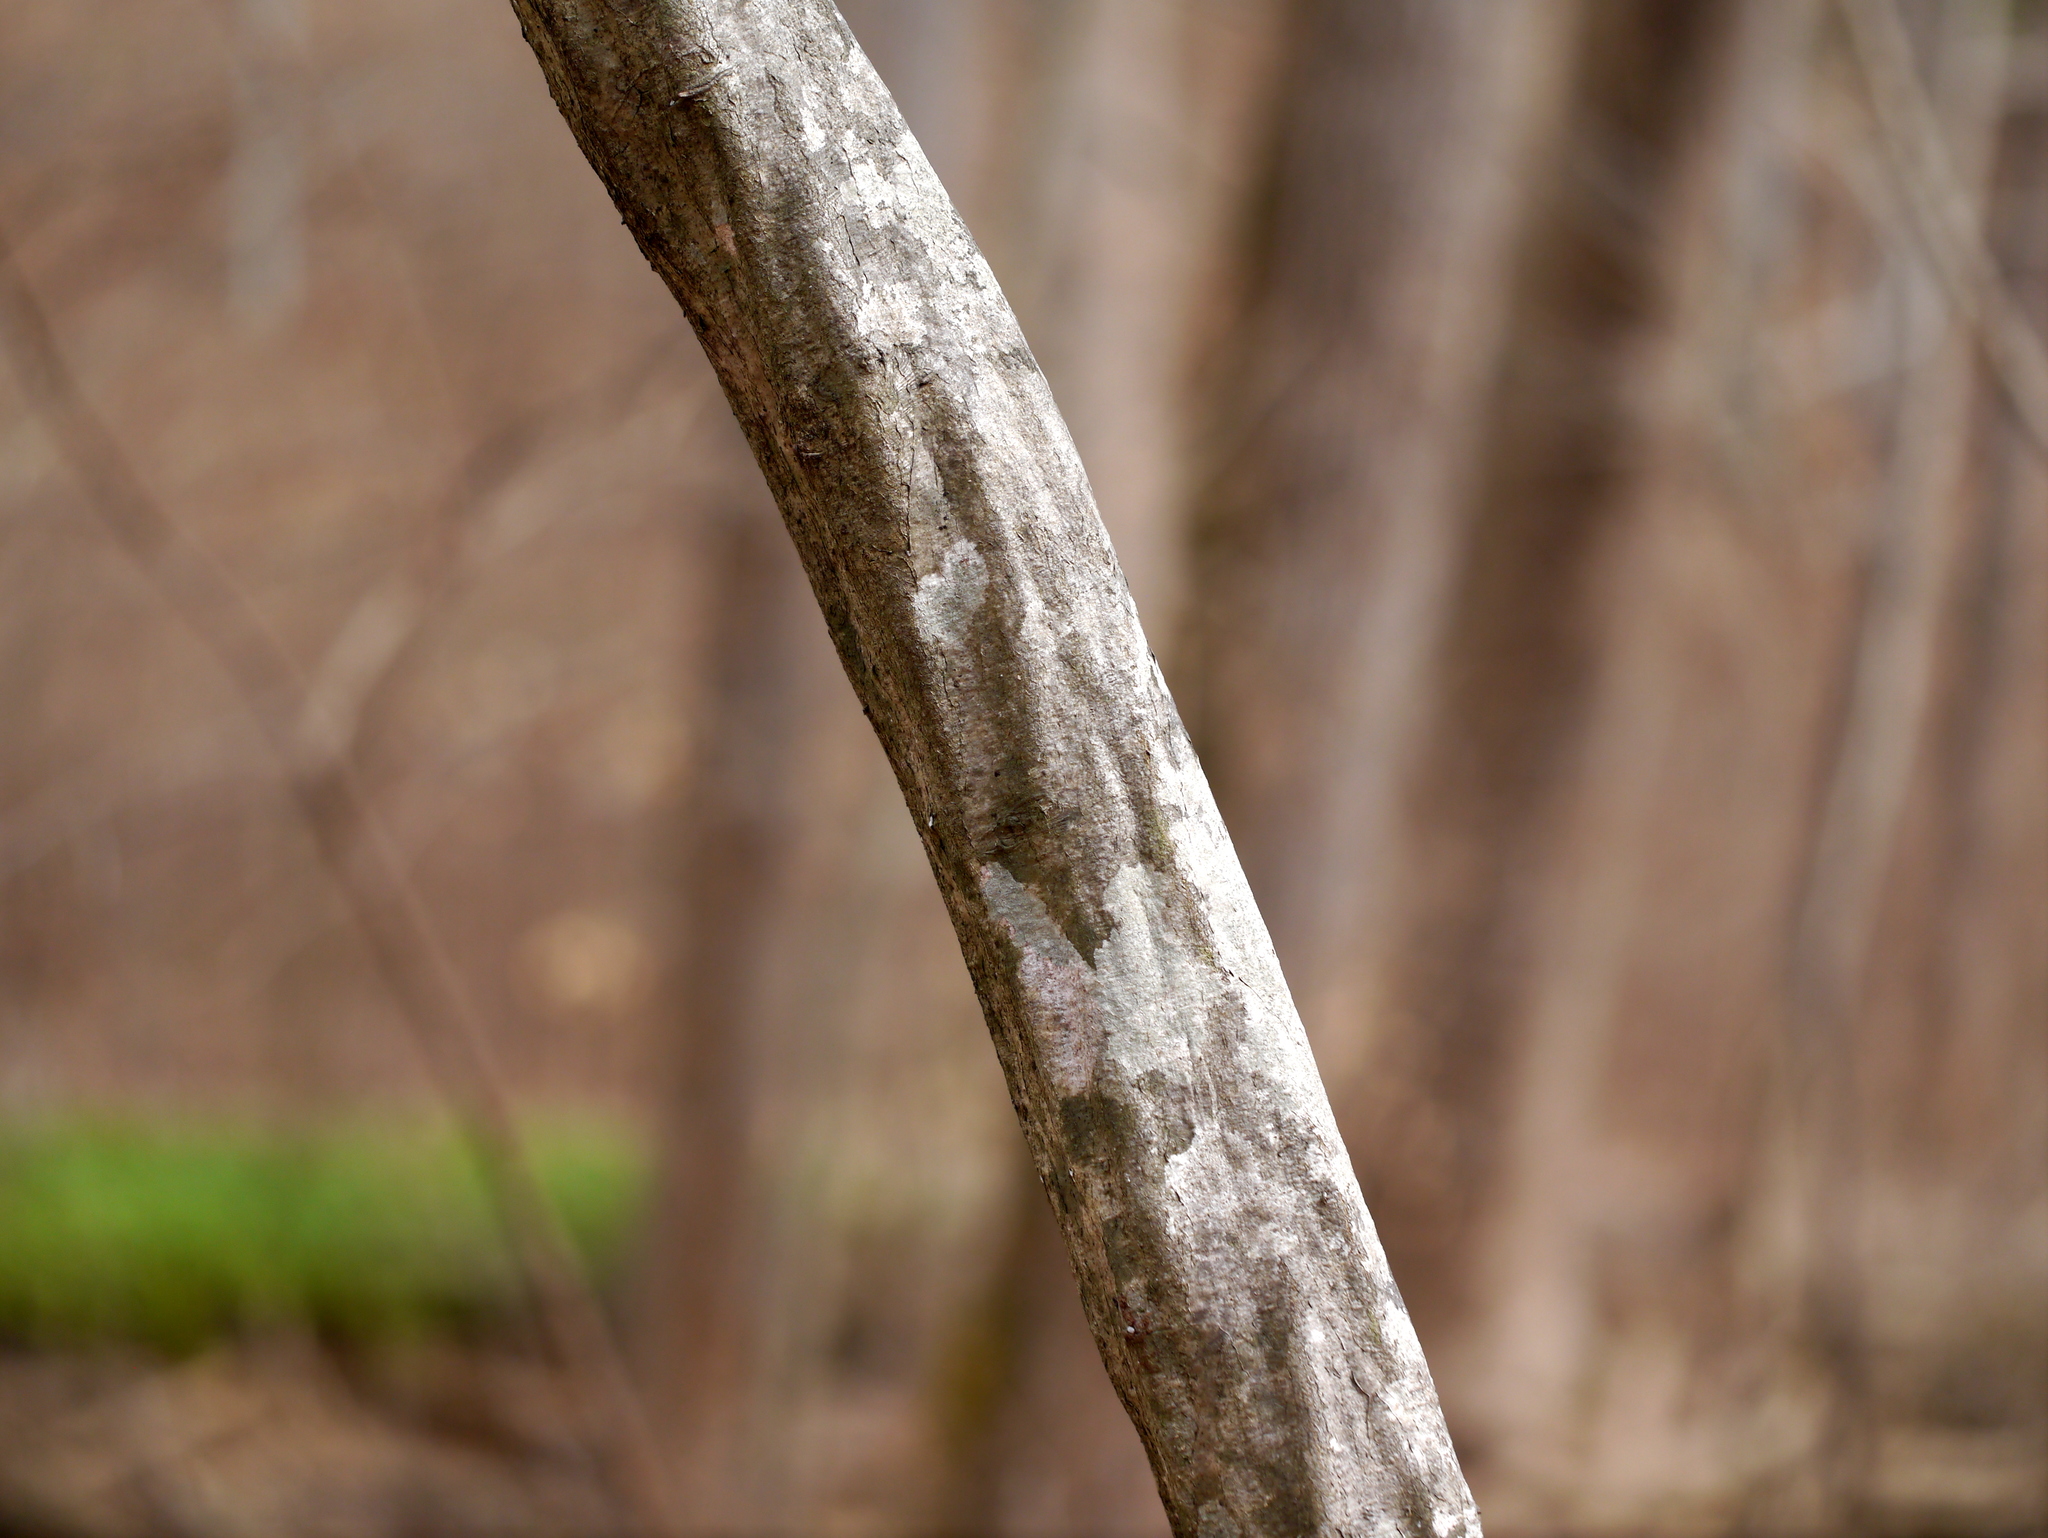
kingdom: Plantae
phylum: Tracheophyta
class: Magnoliopsida
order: Fagales
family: Betulaceae
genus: Carpinus
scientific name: Carpinus caroliniana
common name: American hornbeam
